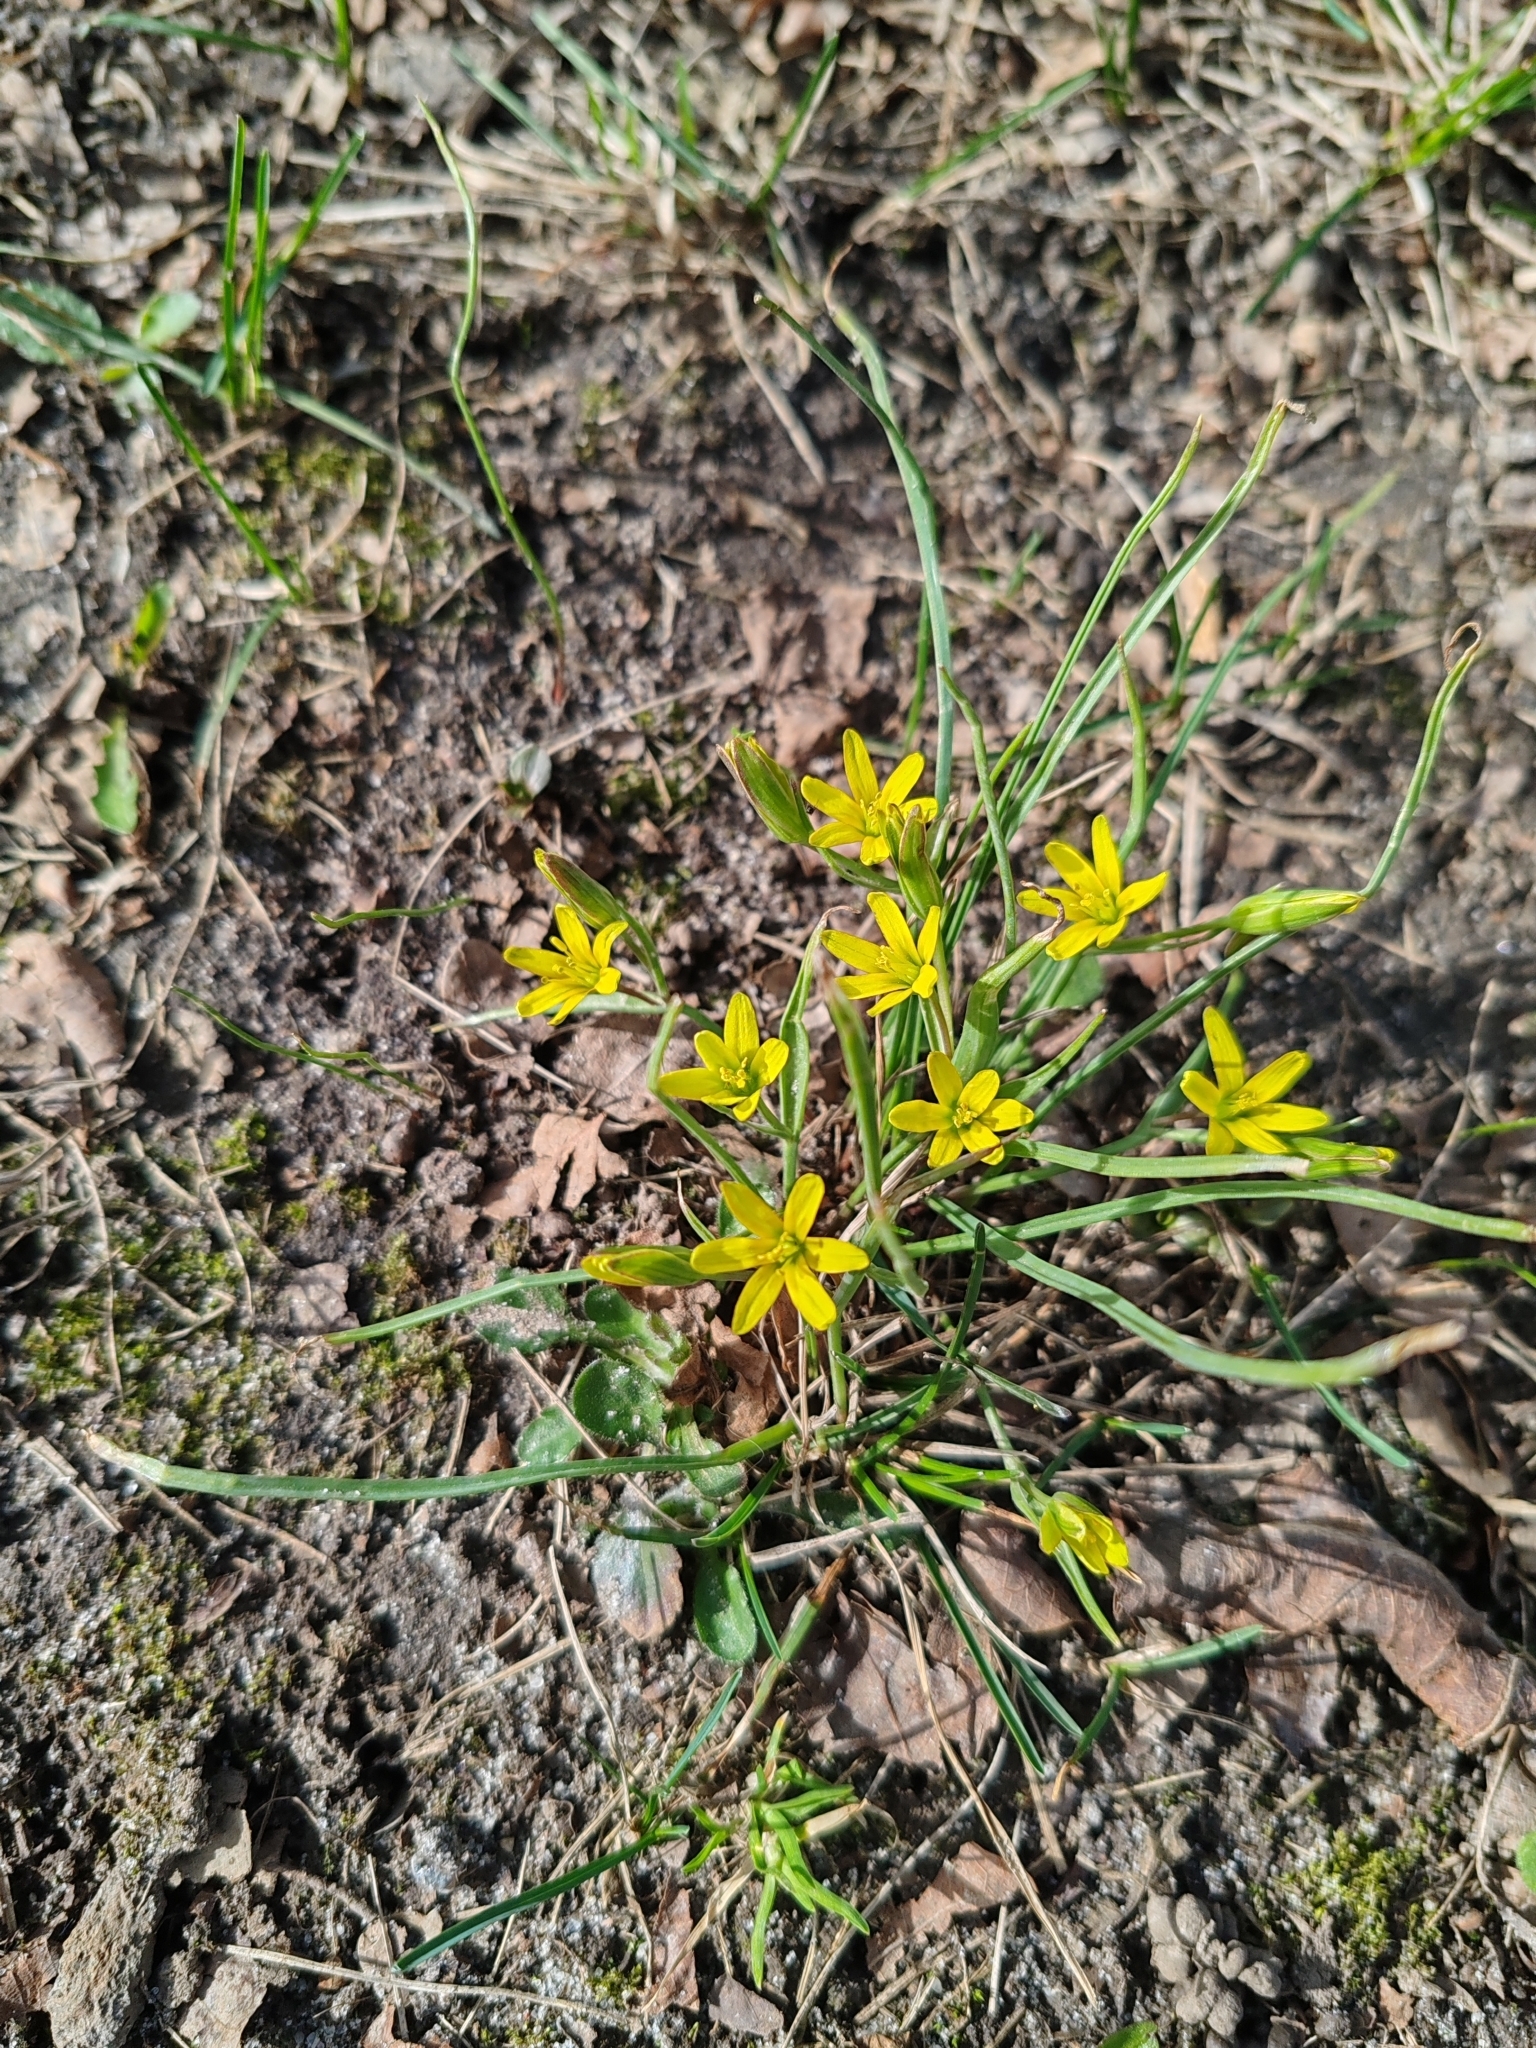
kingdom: Plantae
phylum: Tracheophyta
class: Liliopsida
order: Liliales
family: Liliaceae
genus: Gagea
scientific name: Gagea pusilla
